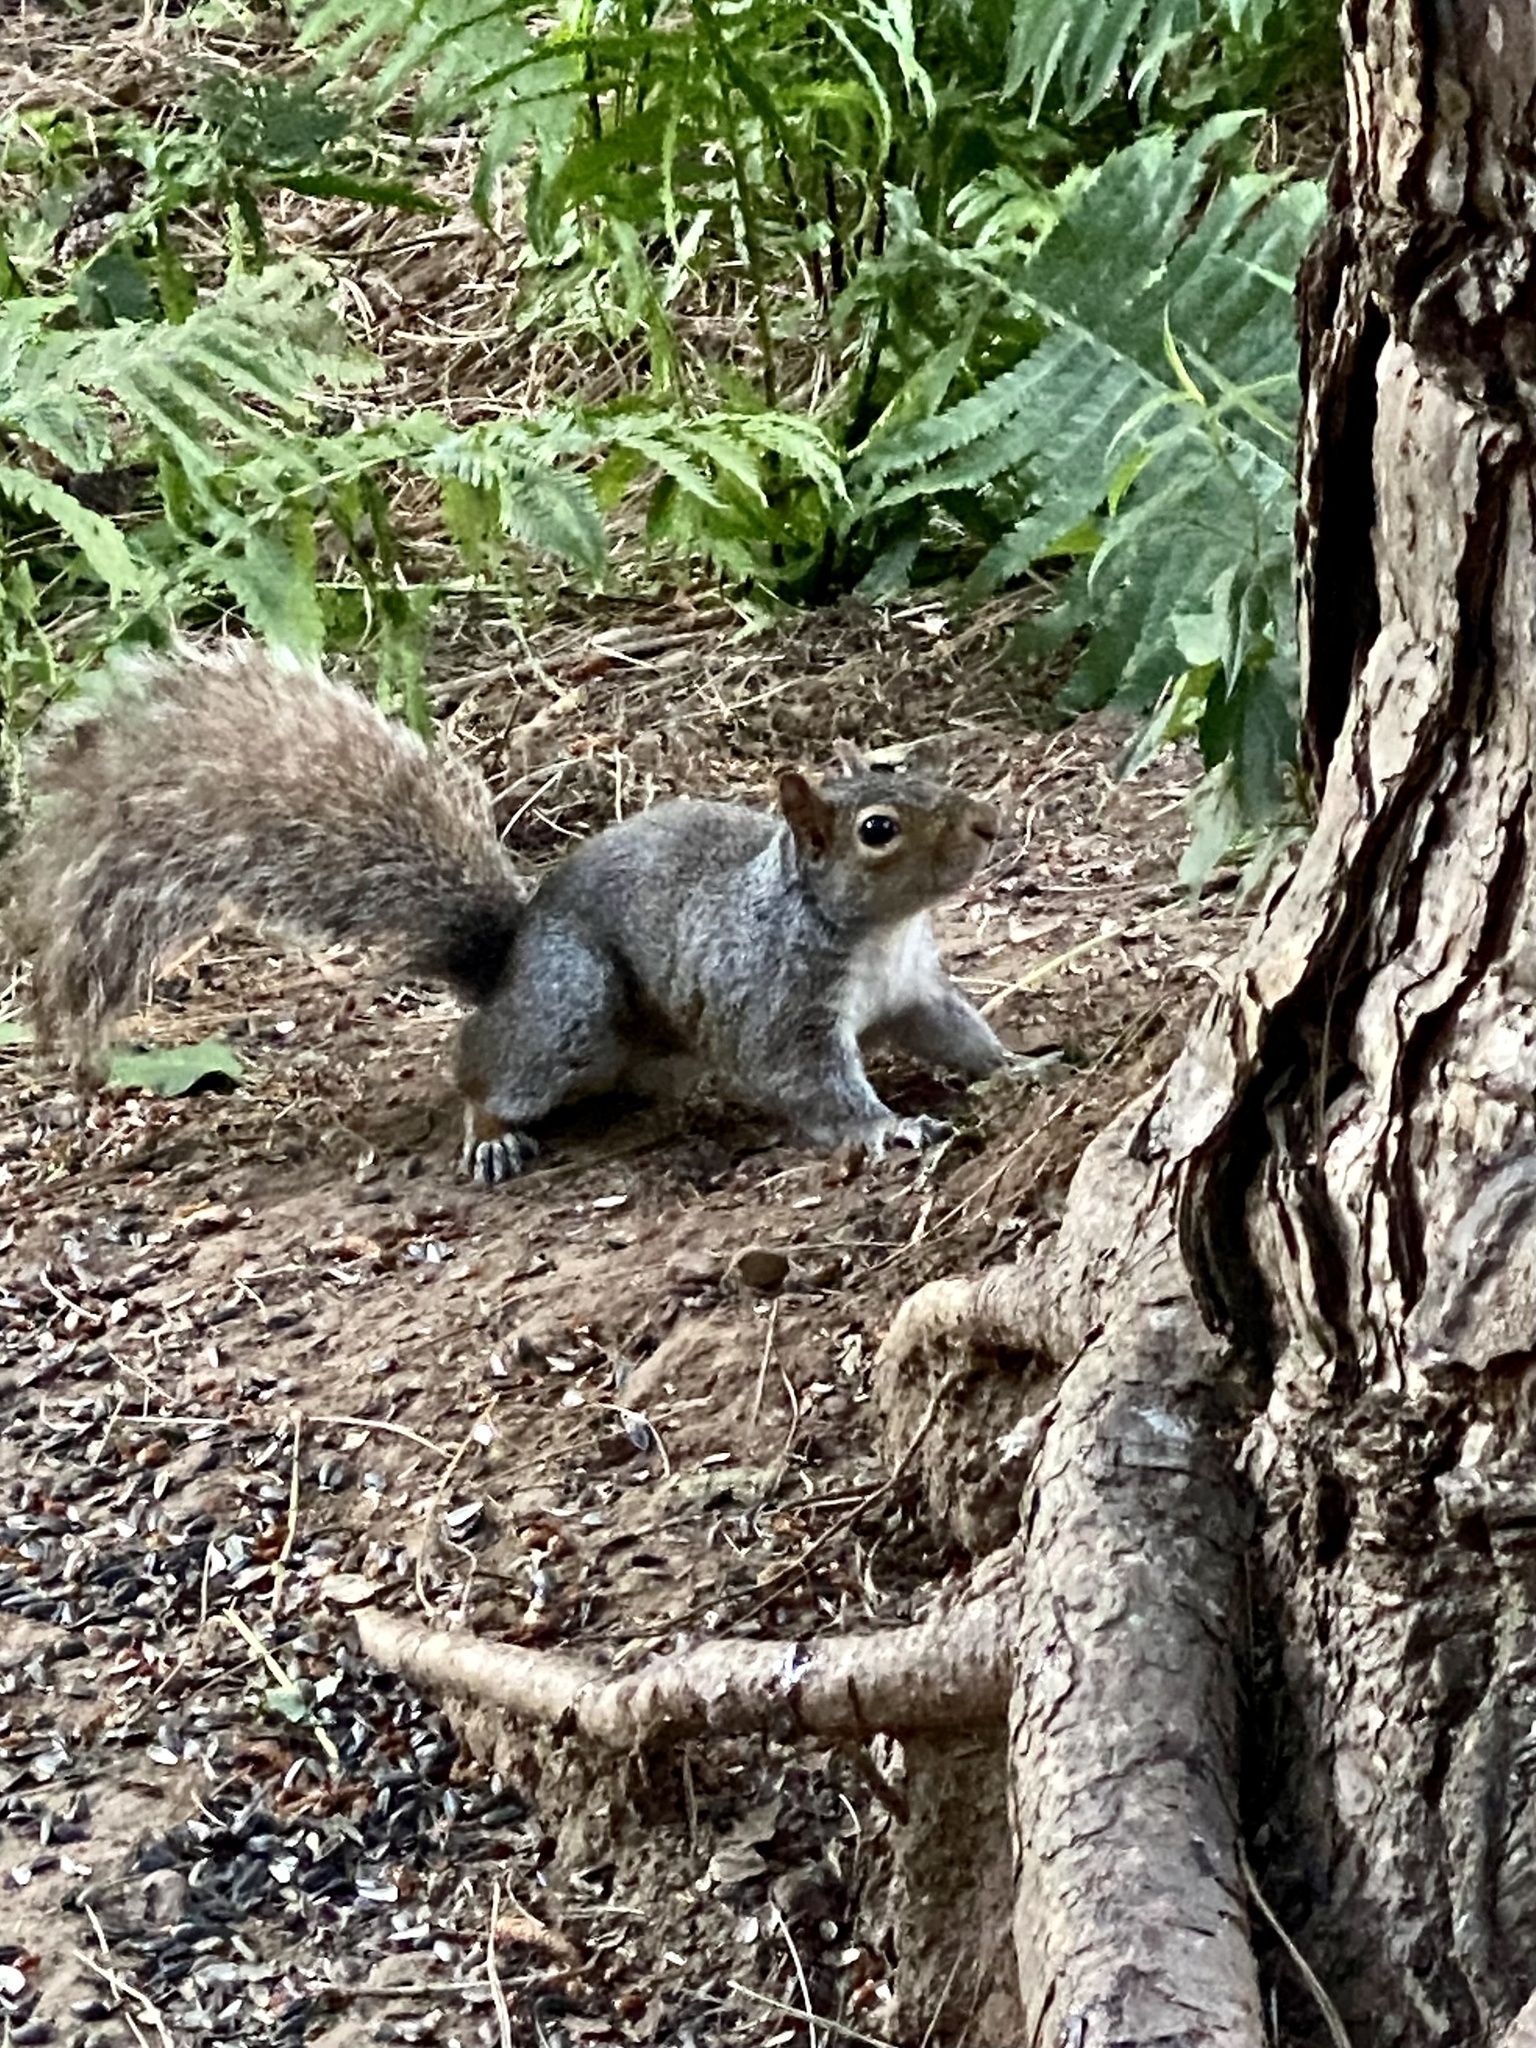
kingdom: Animalia
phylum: Chordata
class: Mammalia
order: Rodentia
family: Sciuridae
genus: Sciurus
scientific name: Sciurus carolinensis
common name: Eastern gray squirrel
